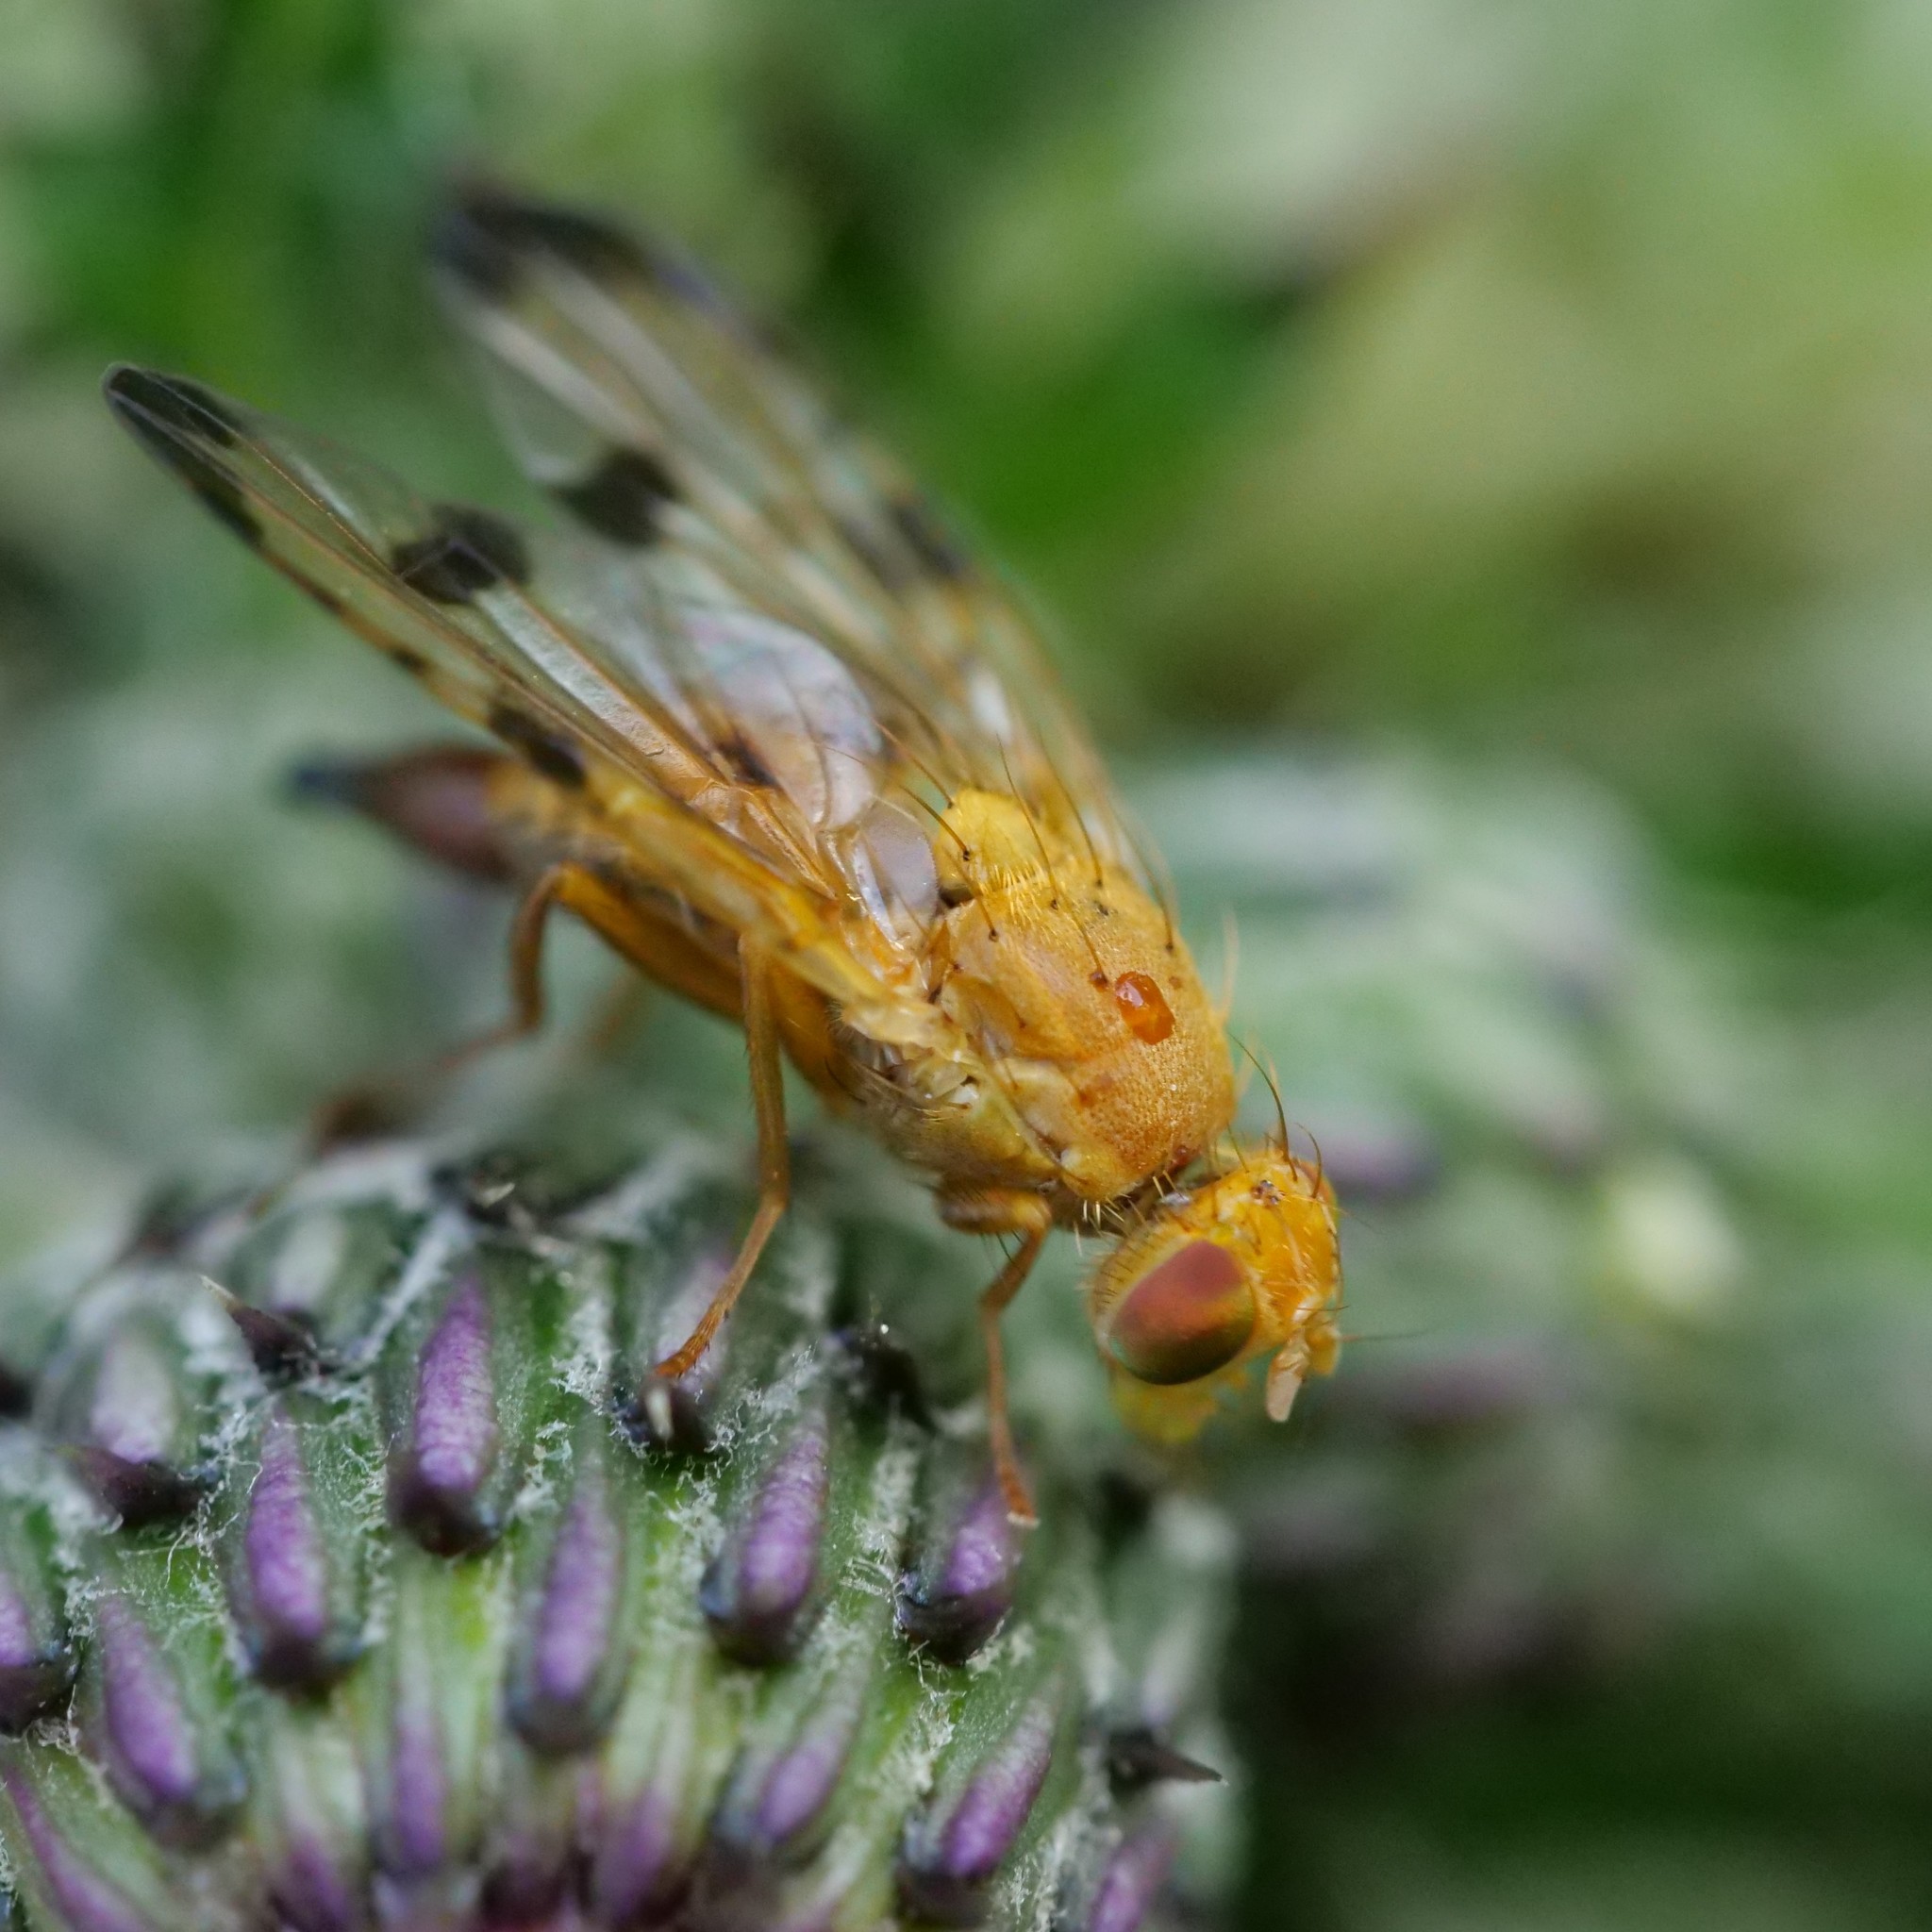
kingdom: Animalia
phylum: Arthropoda
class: Insecta
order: Diptera
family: Tephritidae
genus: Xyphosia
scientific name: Xyphosia miliaria
